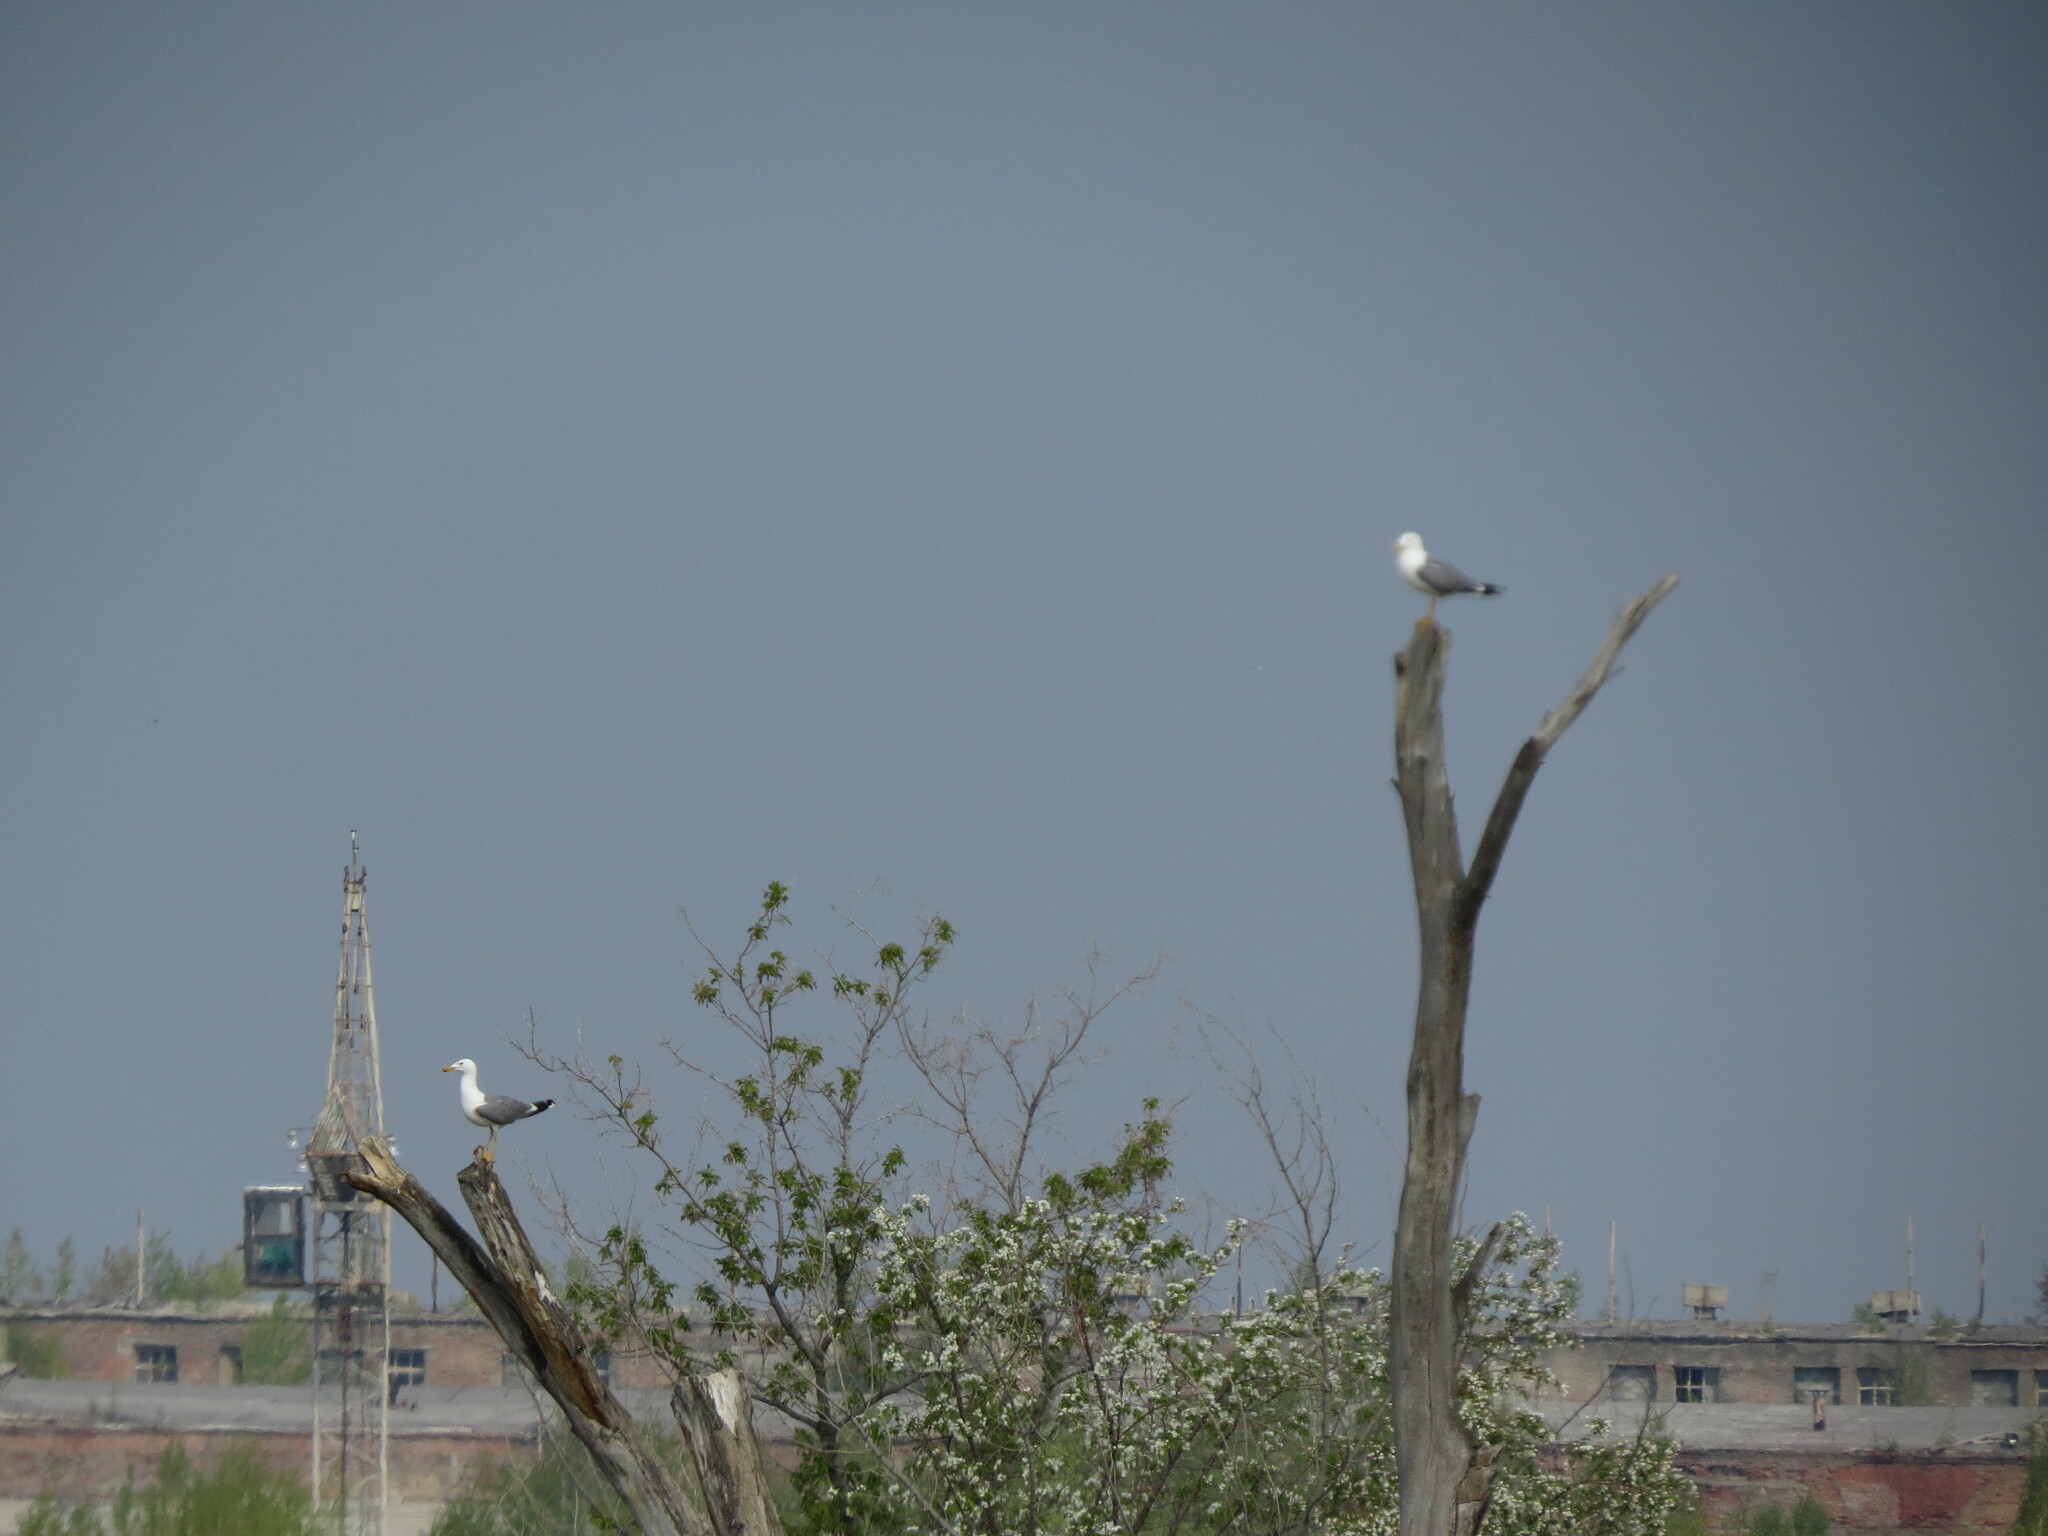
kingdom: Animalia
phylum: Chordata
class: Aves
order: Charadriiformes
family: Laridae
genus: Larus
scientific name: Larus fuscus
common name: Lesser black-backed gull
